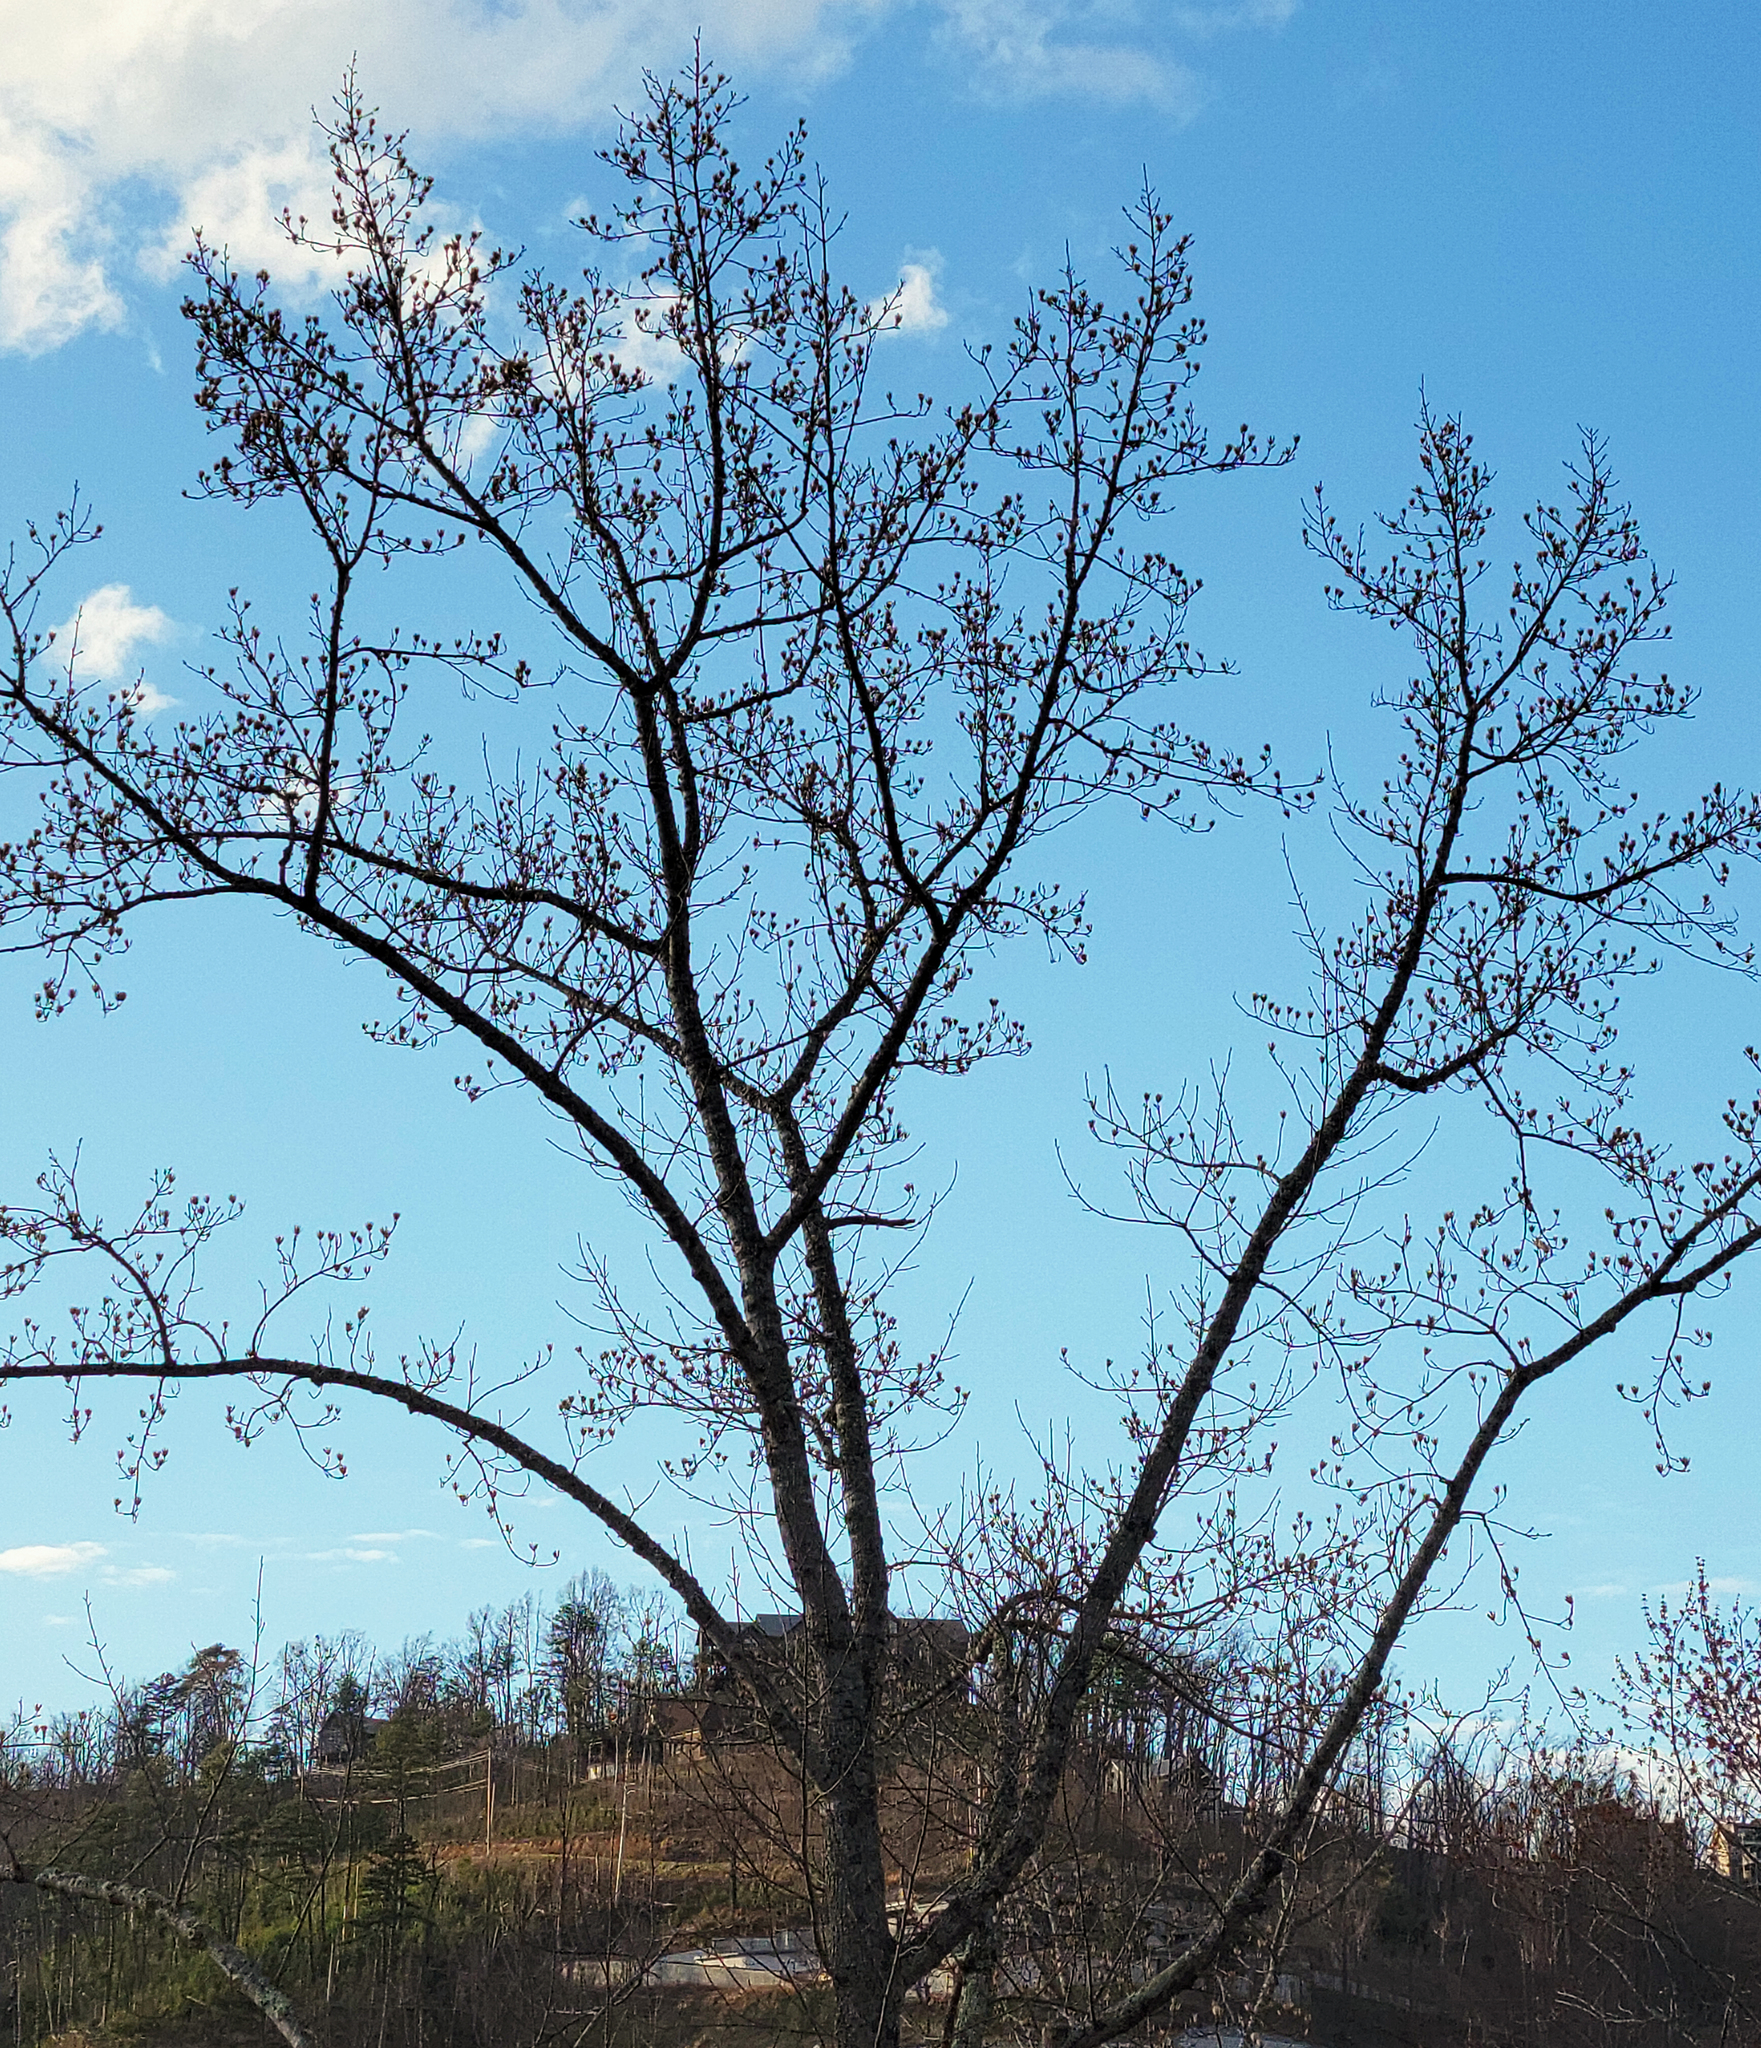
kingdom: Plantae
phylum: Tracheophyta
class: Magnoliopsida
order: Magnoliales
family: Magnoliaceae
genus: Liriodendron
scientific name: Liriodendron tulipifera
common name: Tulip tree
